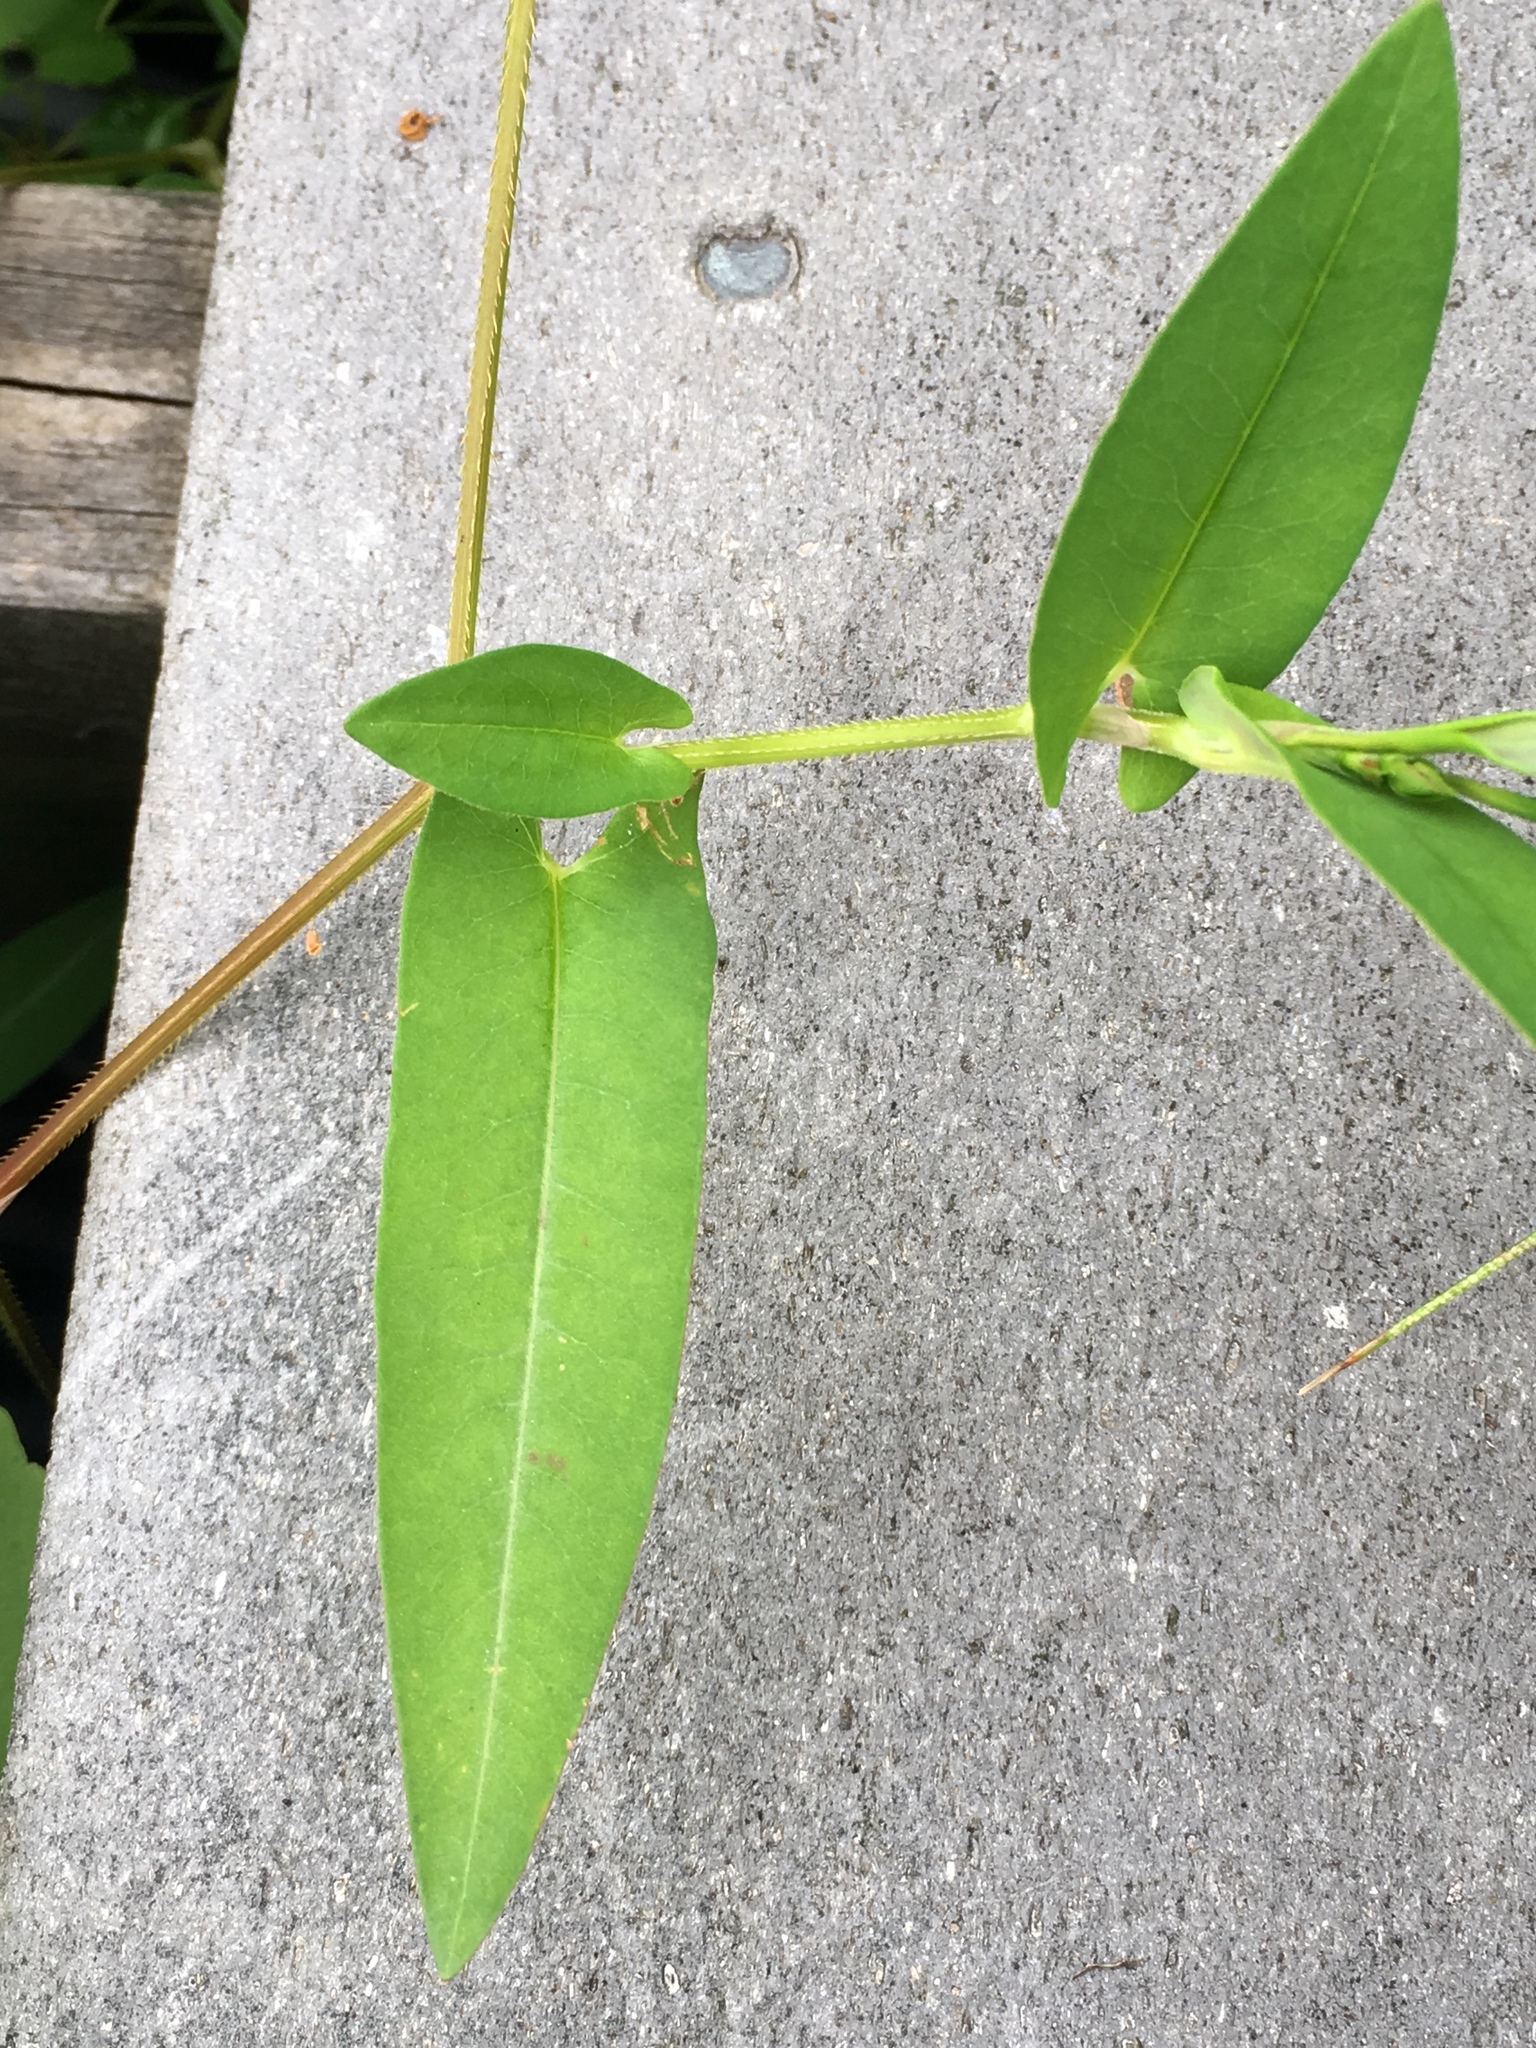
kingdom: Plantae
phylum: Tracheophyta
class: Magnoliopsida
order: Caryophyllales
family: Polygonaceae
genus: Persicaria
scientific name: Persicaria sagittata
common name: American tearthumb
